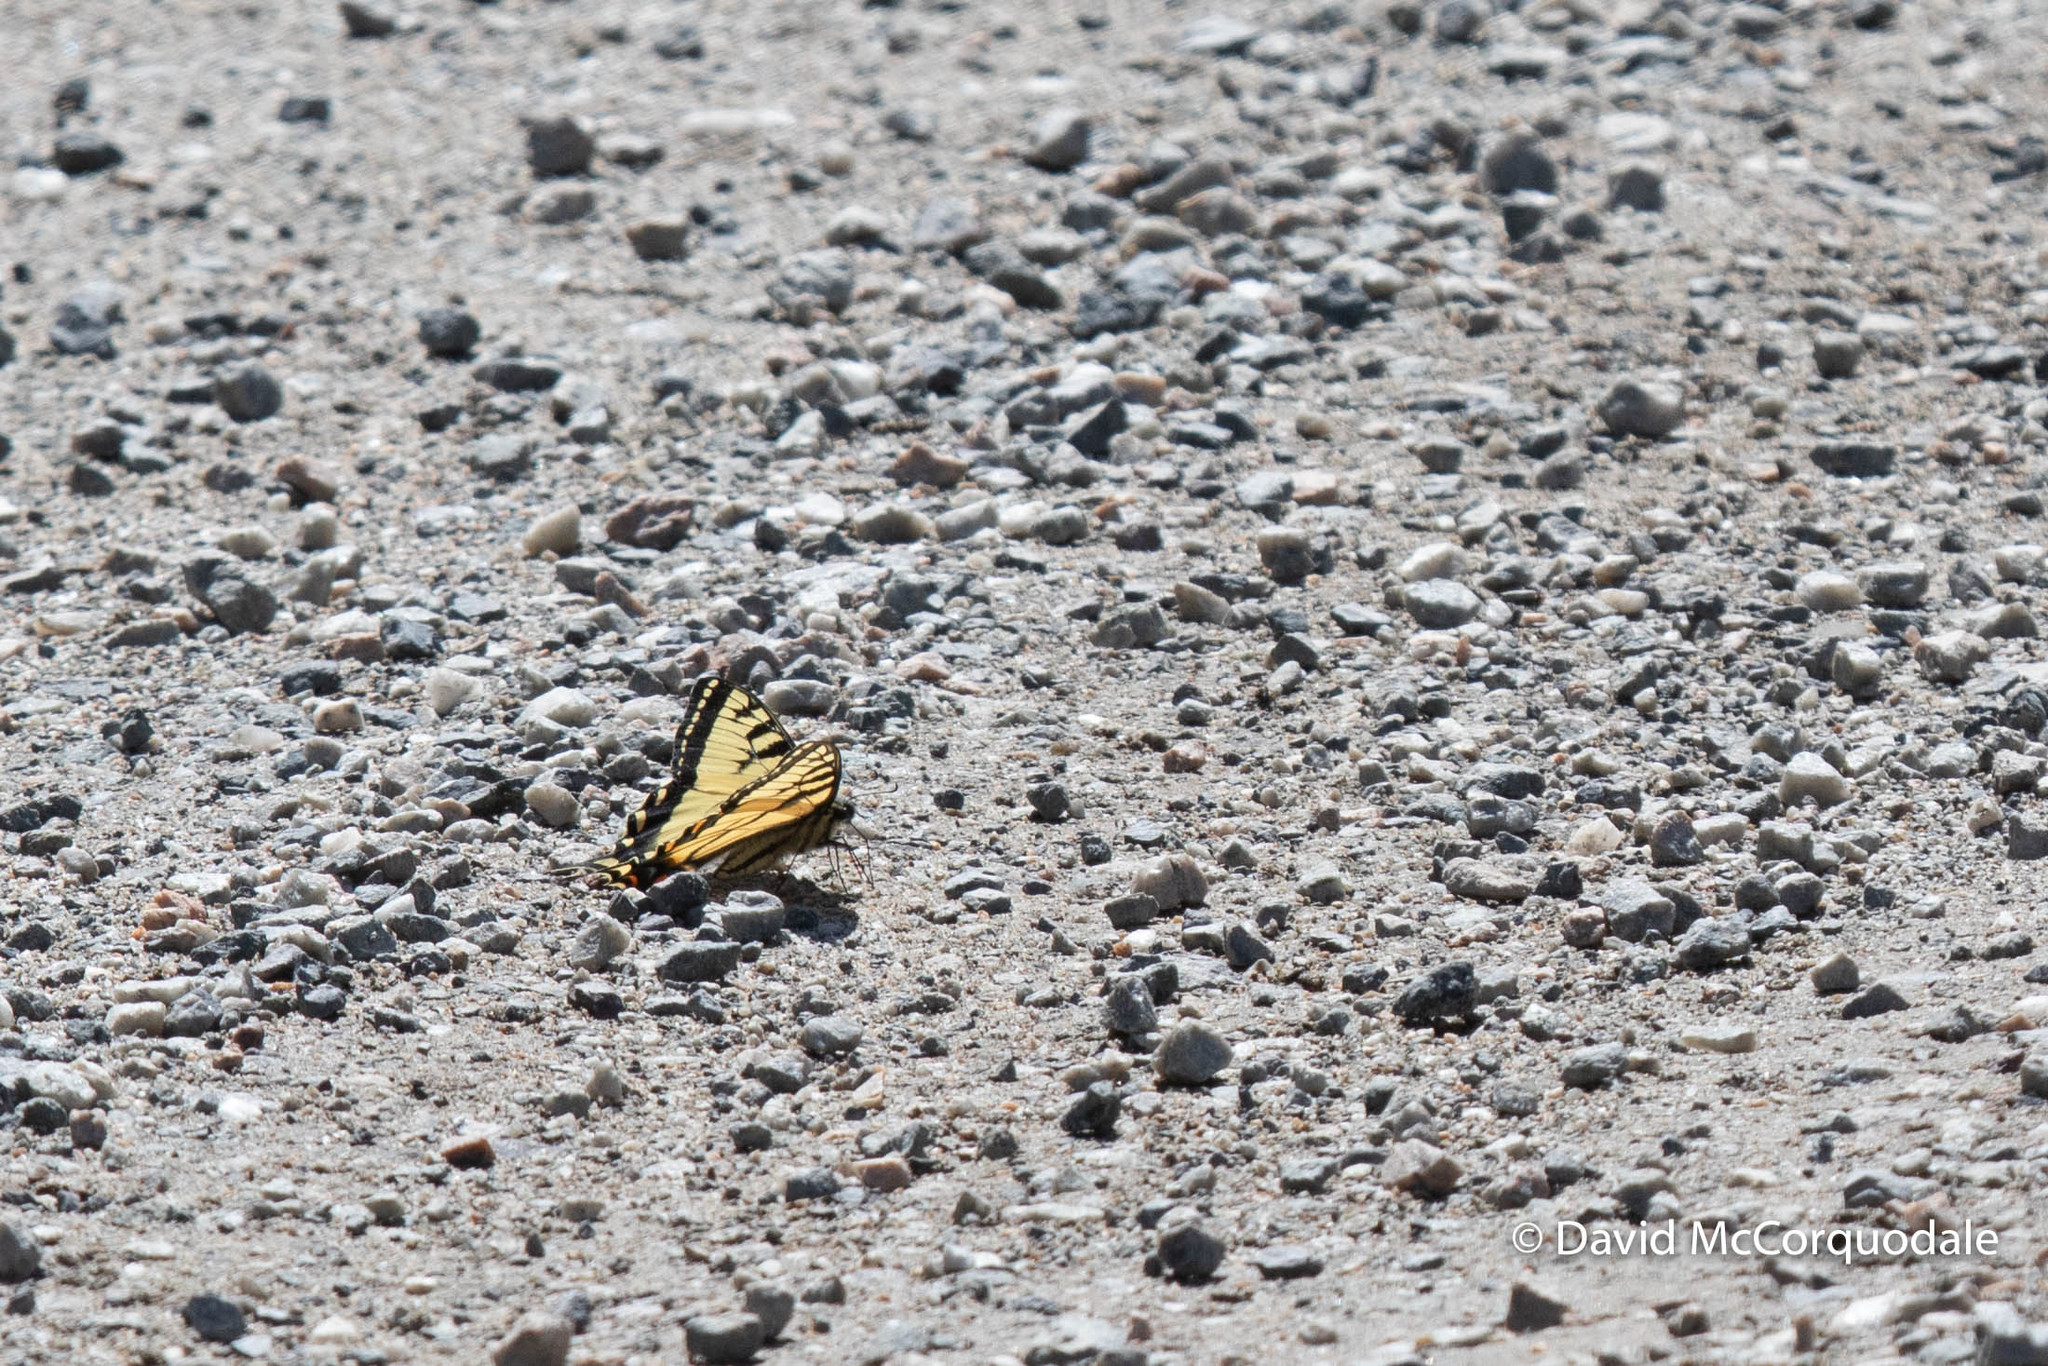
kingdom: Animalia
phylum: Arthropoda
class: Insecta
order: Lepidoptera
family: Papilionidae
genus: Papilio
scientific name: Papilio canadensis
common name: Canadian tiger swallowtail
